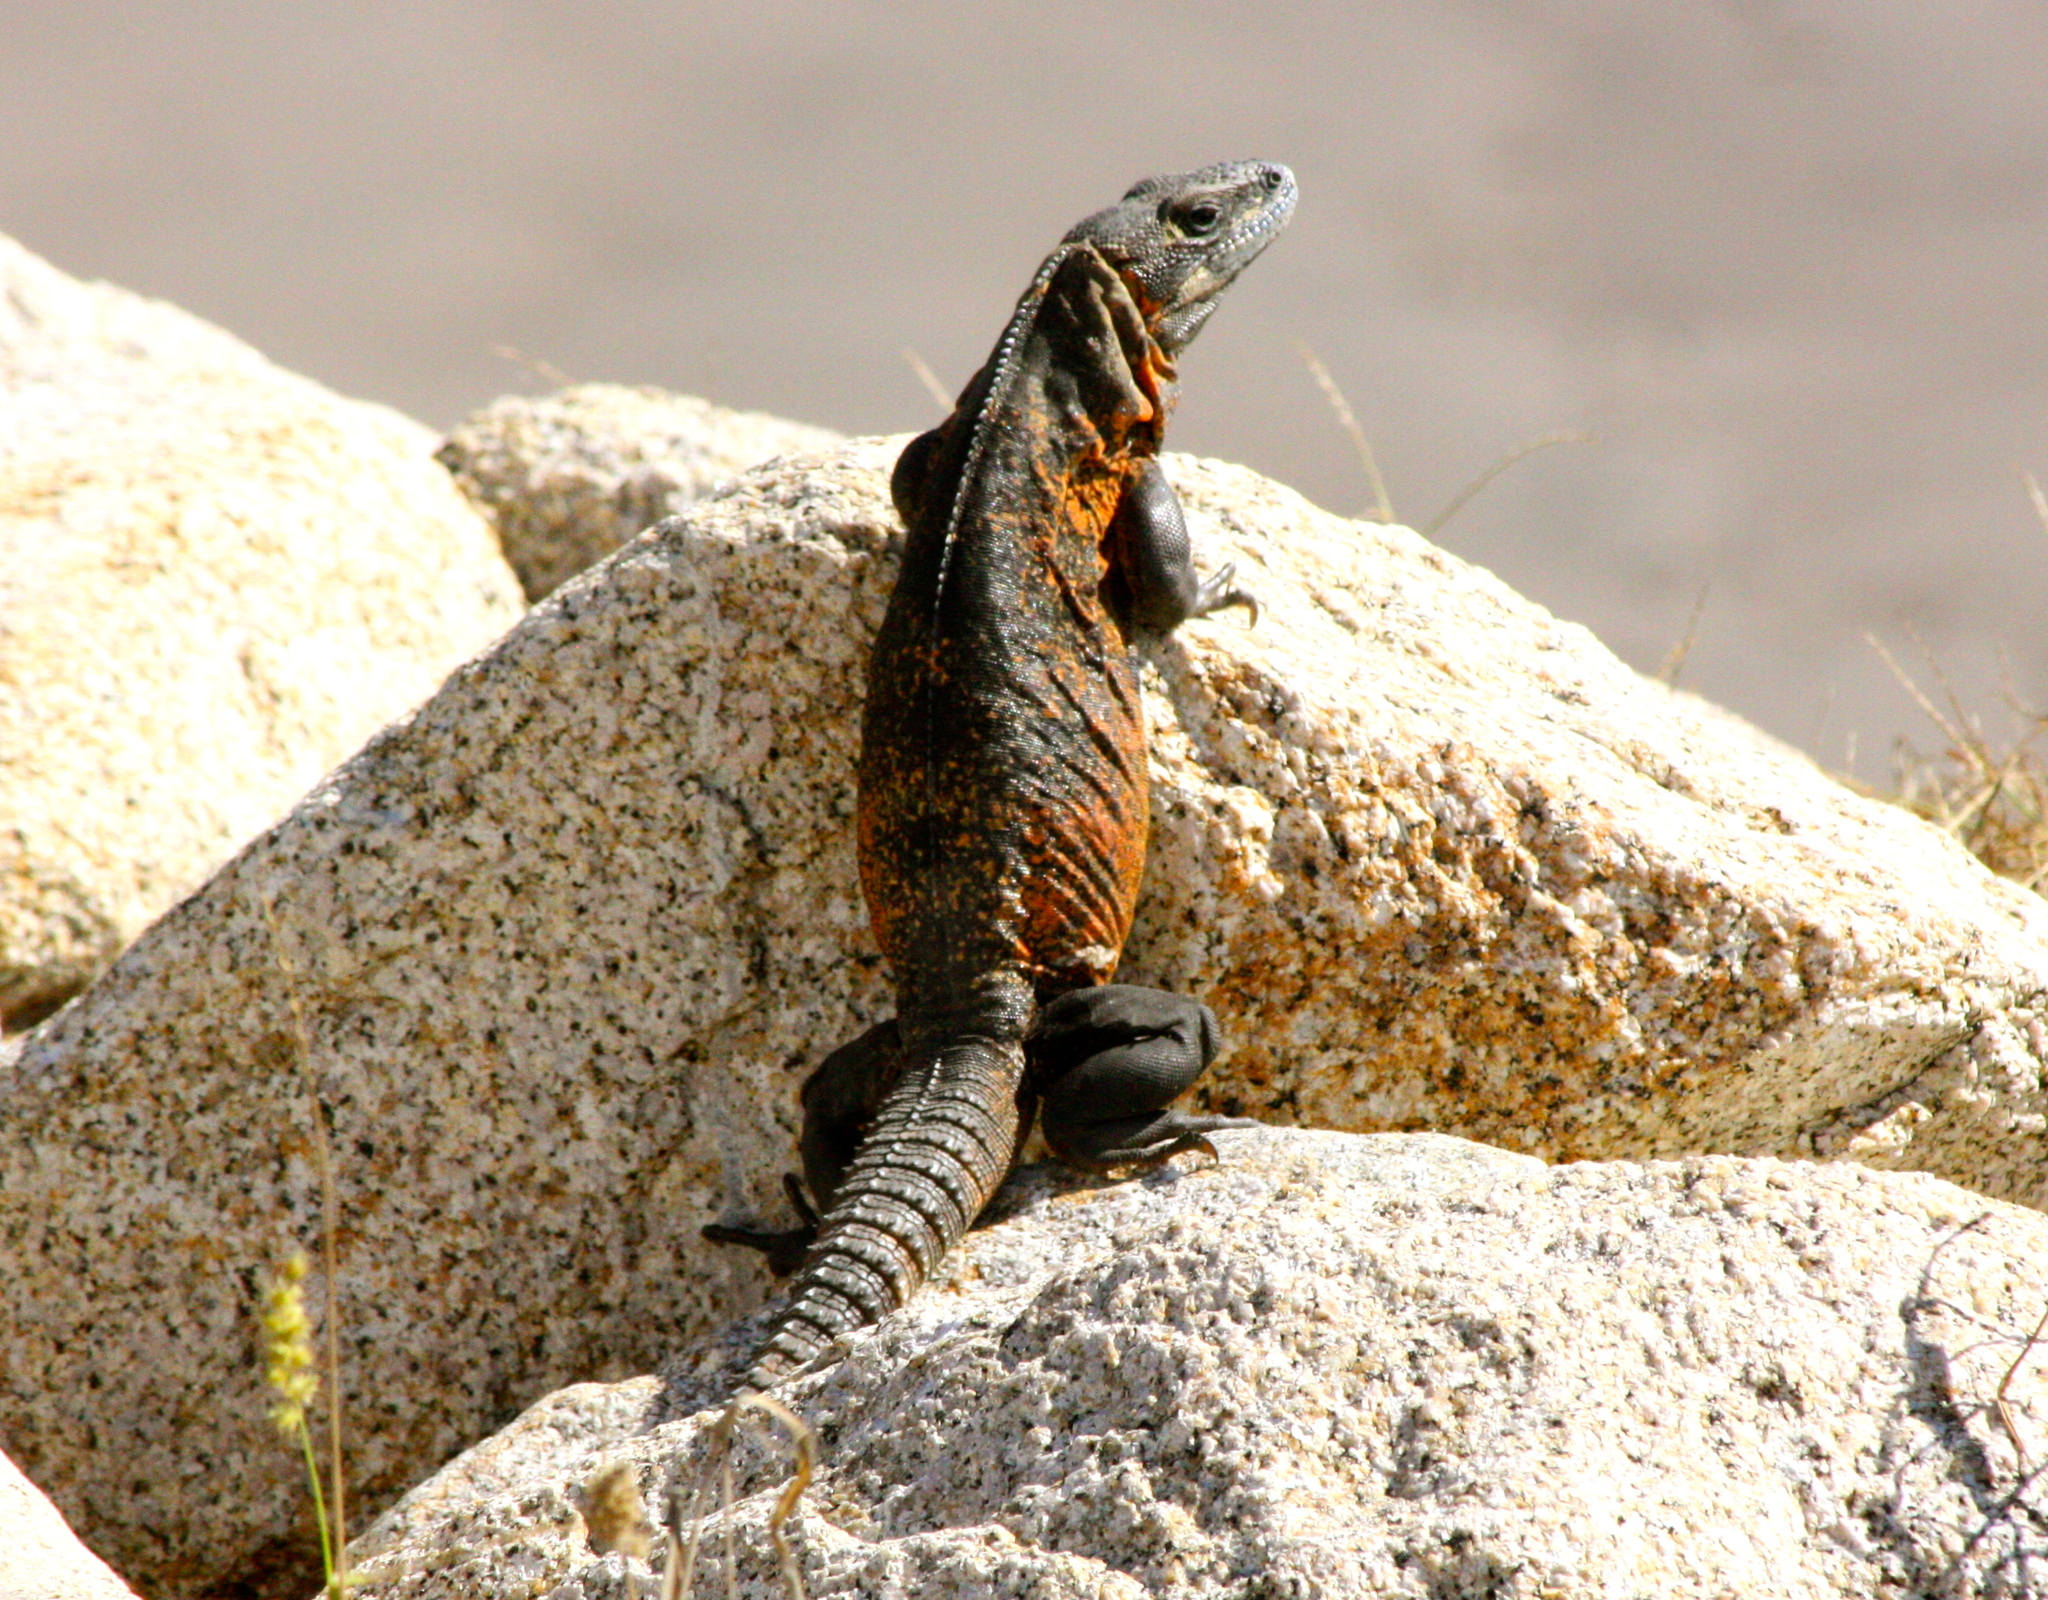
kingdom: Animalia
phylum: Chordata
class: Squamata
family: Iguanidae
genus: Ctenosaura
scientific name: Ctenosaura pectinata
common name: Guerreran spiny-tailed iguana
